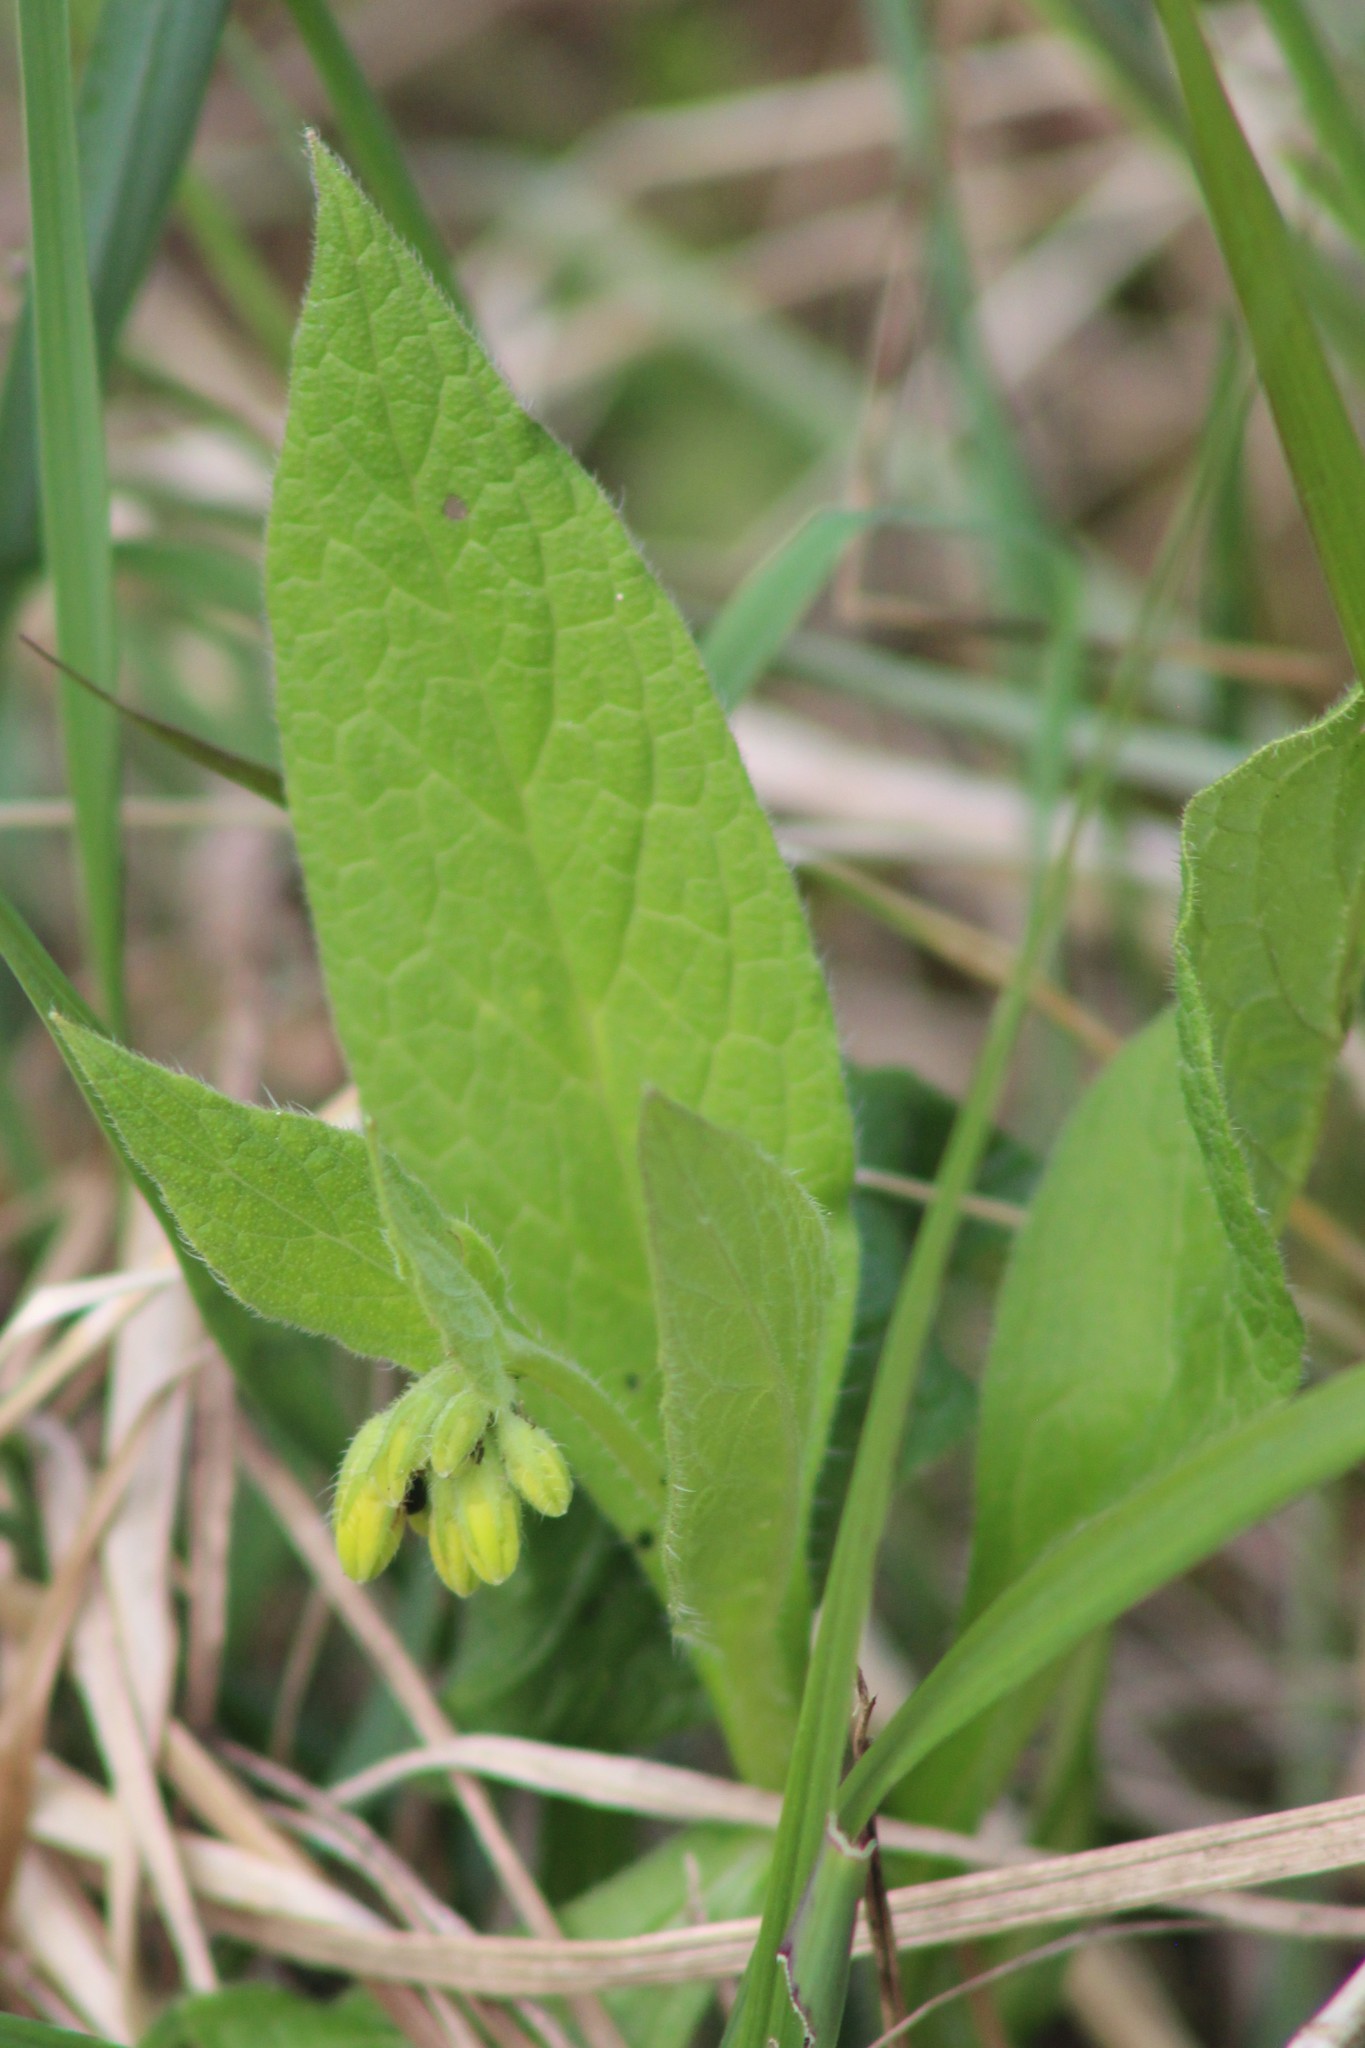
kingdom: Plantae
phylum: Tracheophyta
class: Magnoliopsida
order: Boraginales
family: Boraginaceae
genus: Symphytum
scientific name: Symphytum tuberosum
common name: Tuberous comfrey
